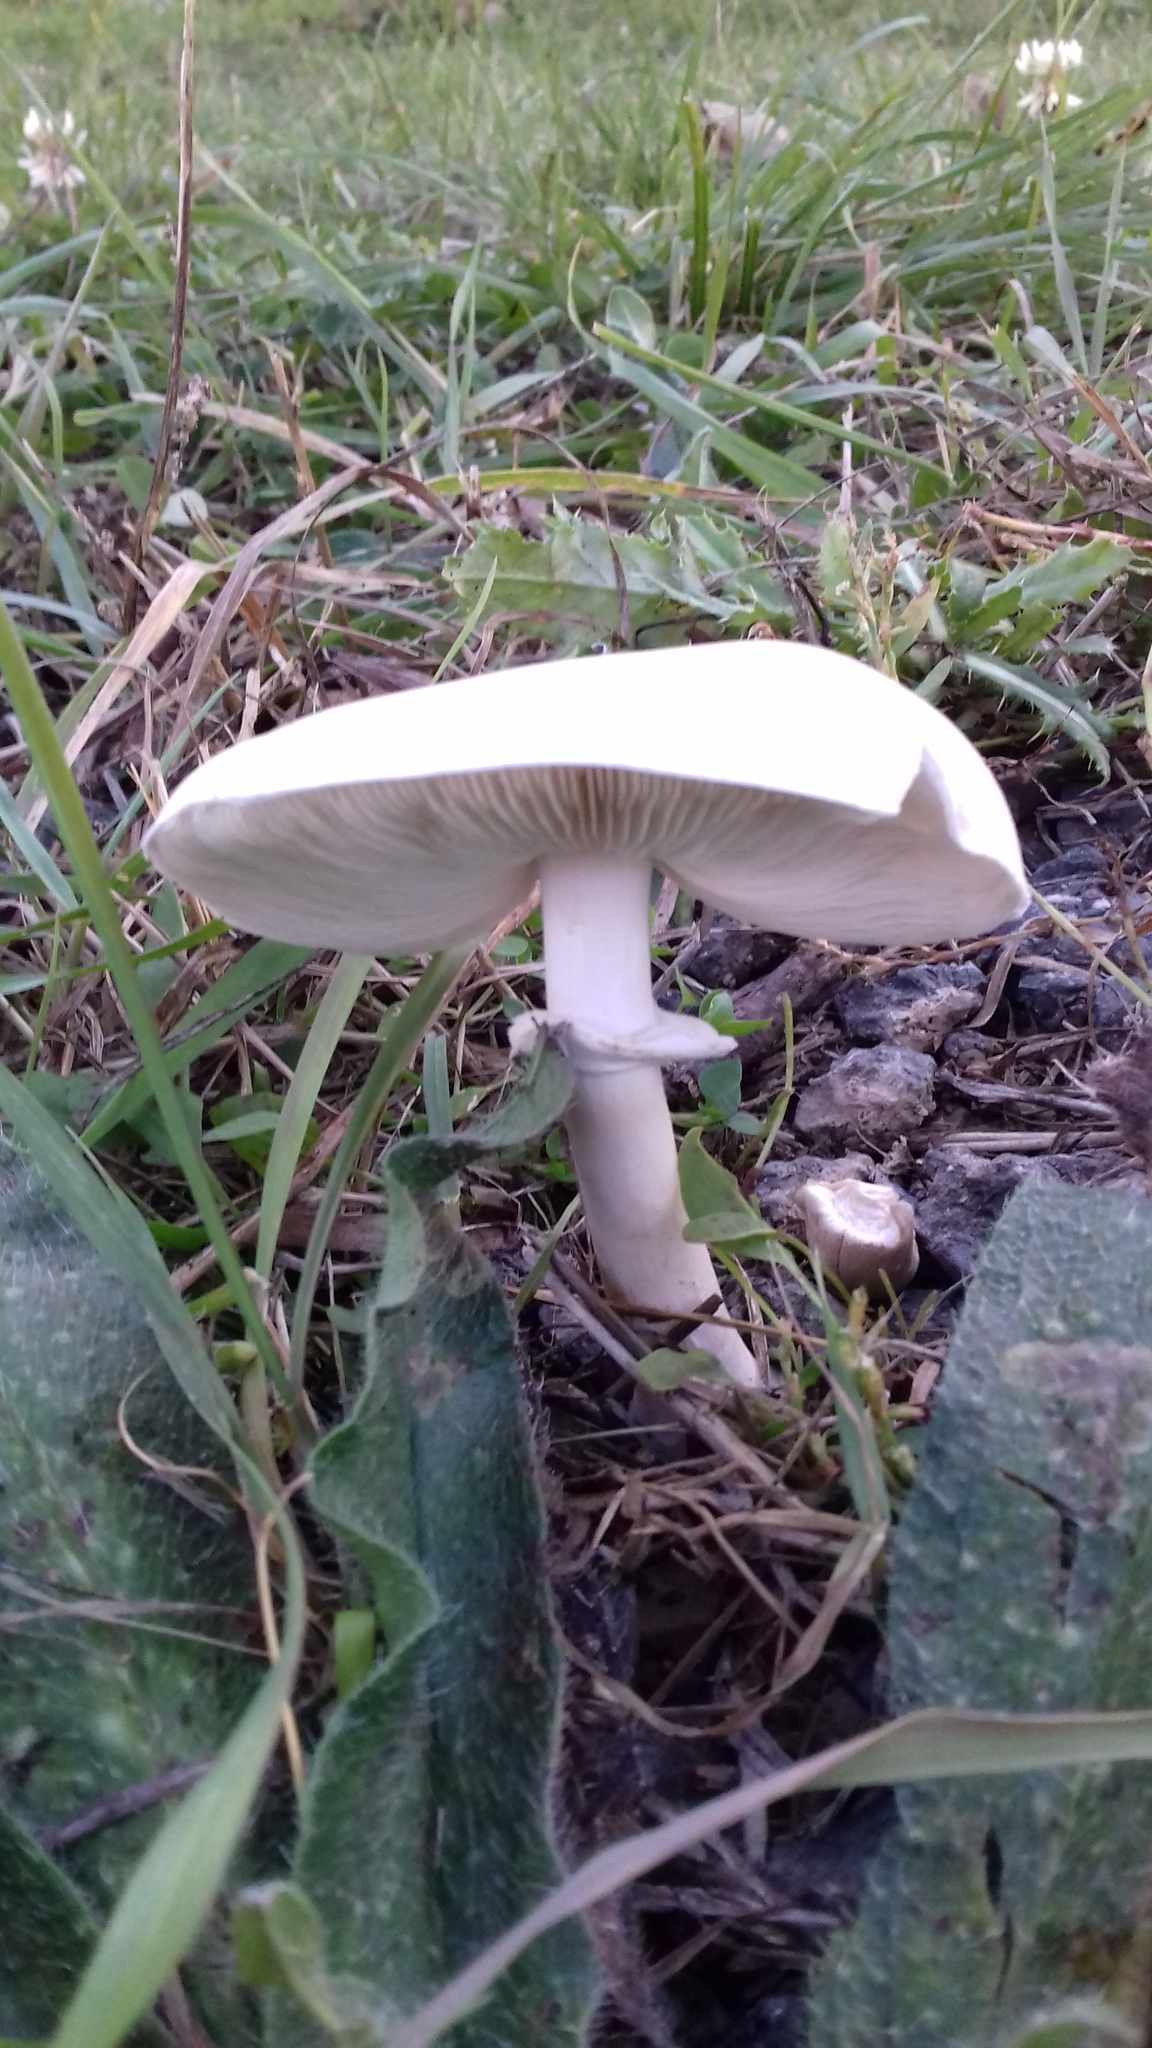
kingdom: Fungi
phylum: Basidiomycota
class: Agaricomycetes
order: Agaricales
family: Agaricaceae
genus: Leucoagaricus
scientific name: Leucoagaricus leucothites
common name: White dapperling
